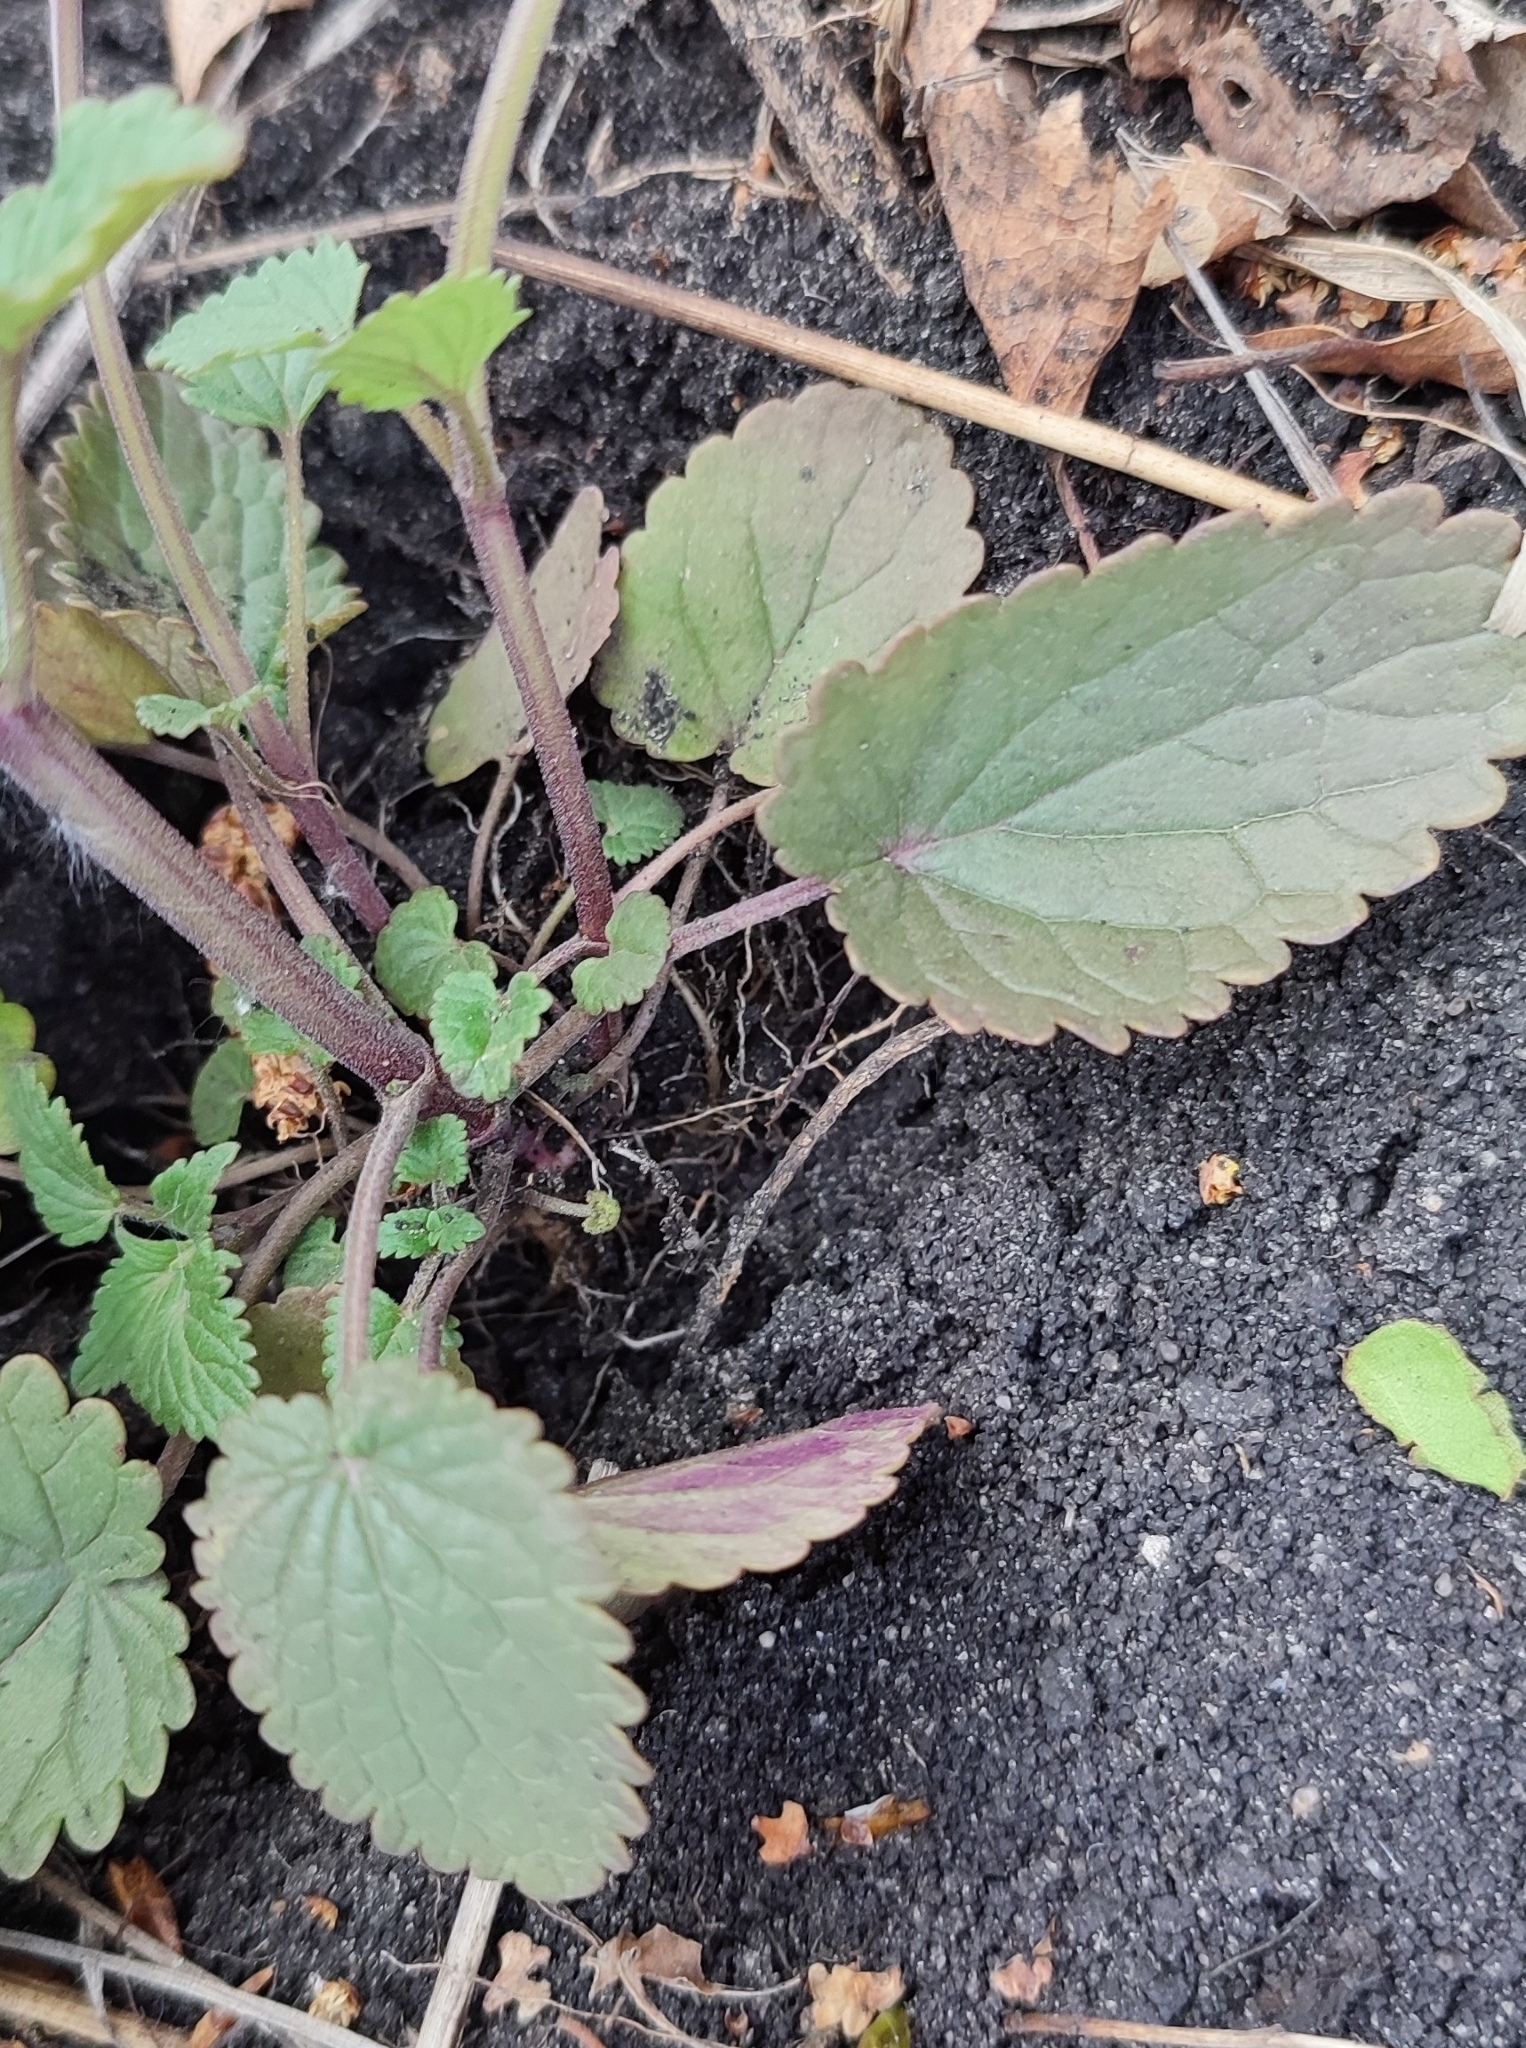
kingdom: Plantae
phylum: Tracheophyta
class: Magnoliopsida
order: Lamiales
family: Lamiaceae
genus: Dracocephalum
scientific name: Dracocephalum thymiflorum
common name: Thymeleaf dragonhead
